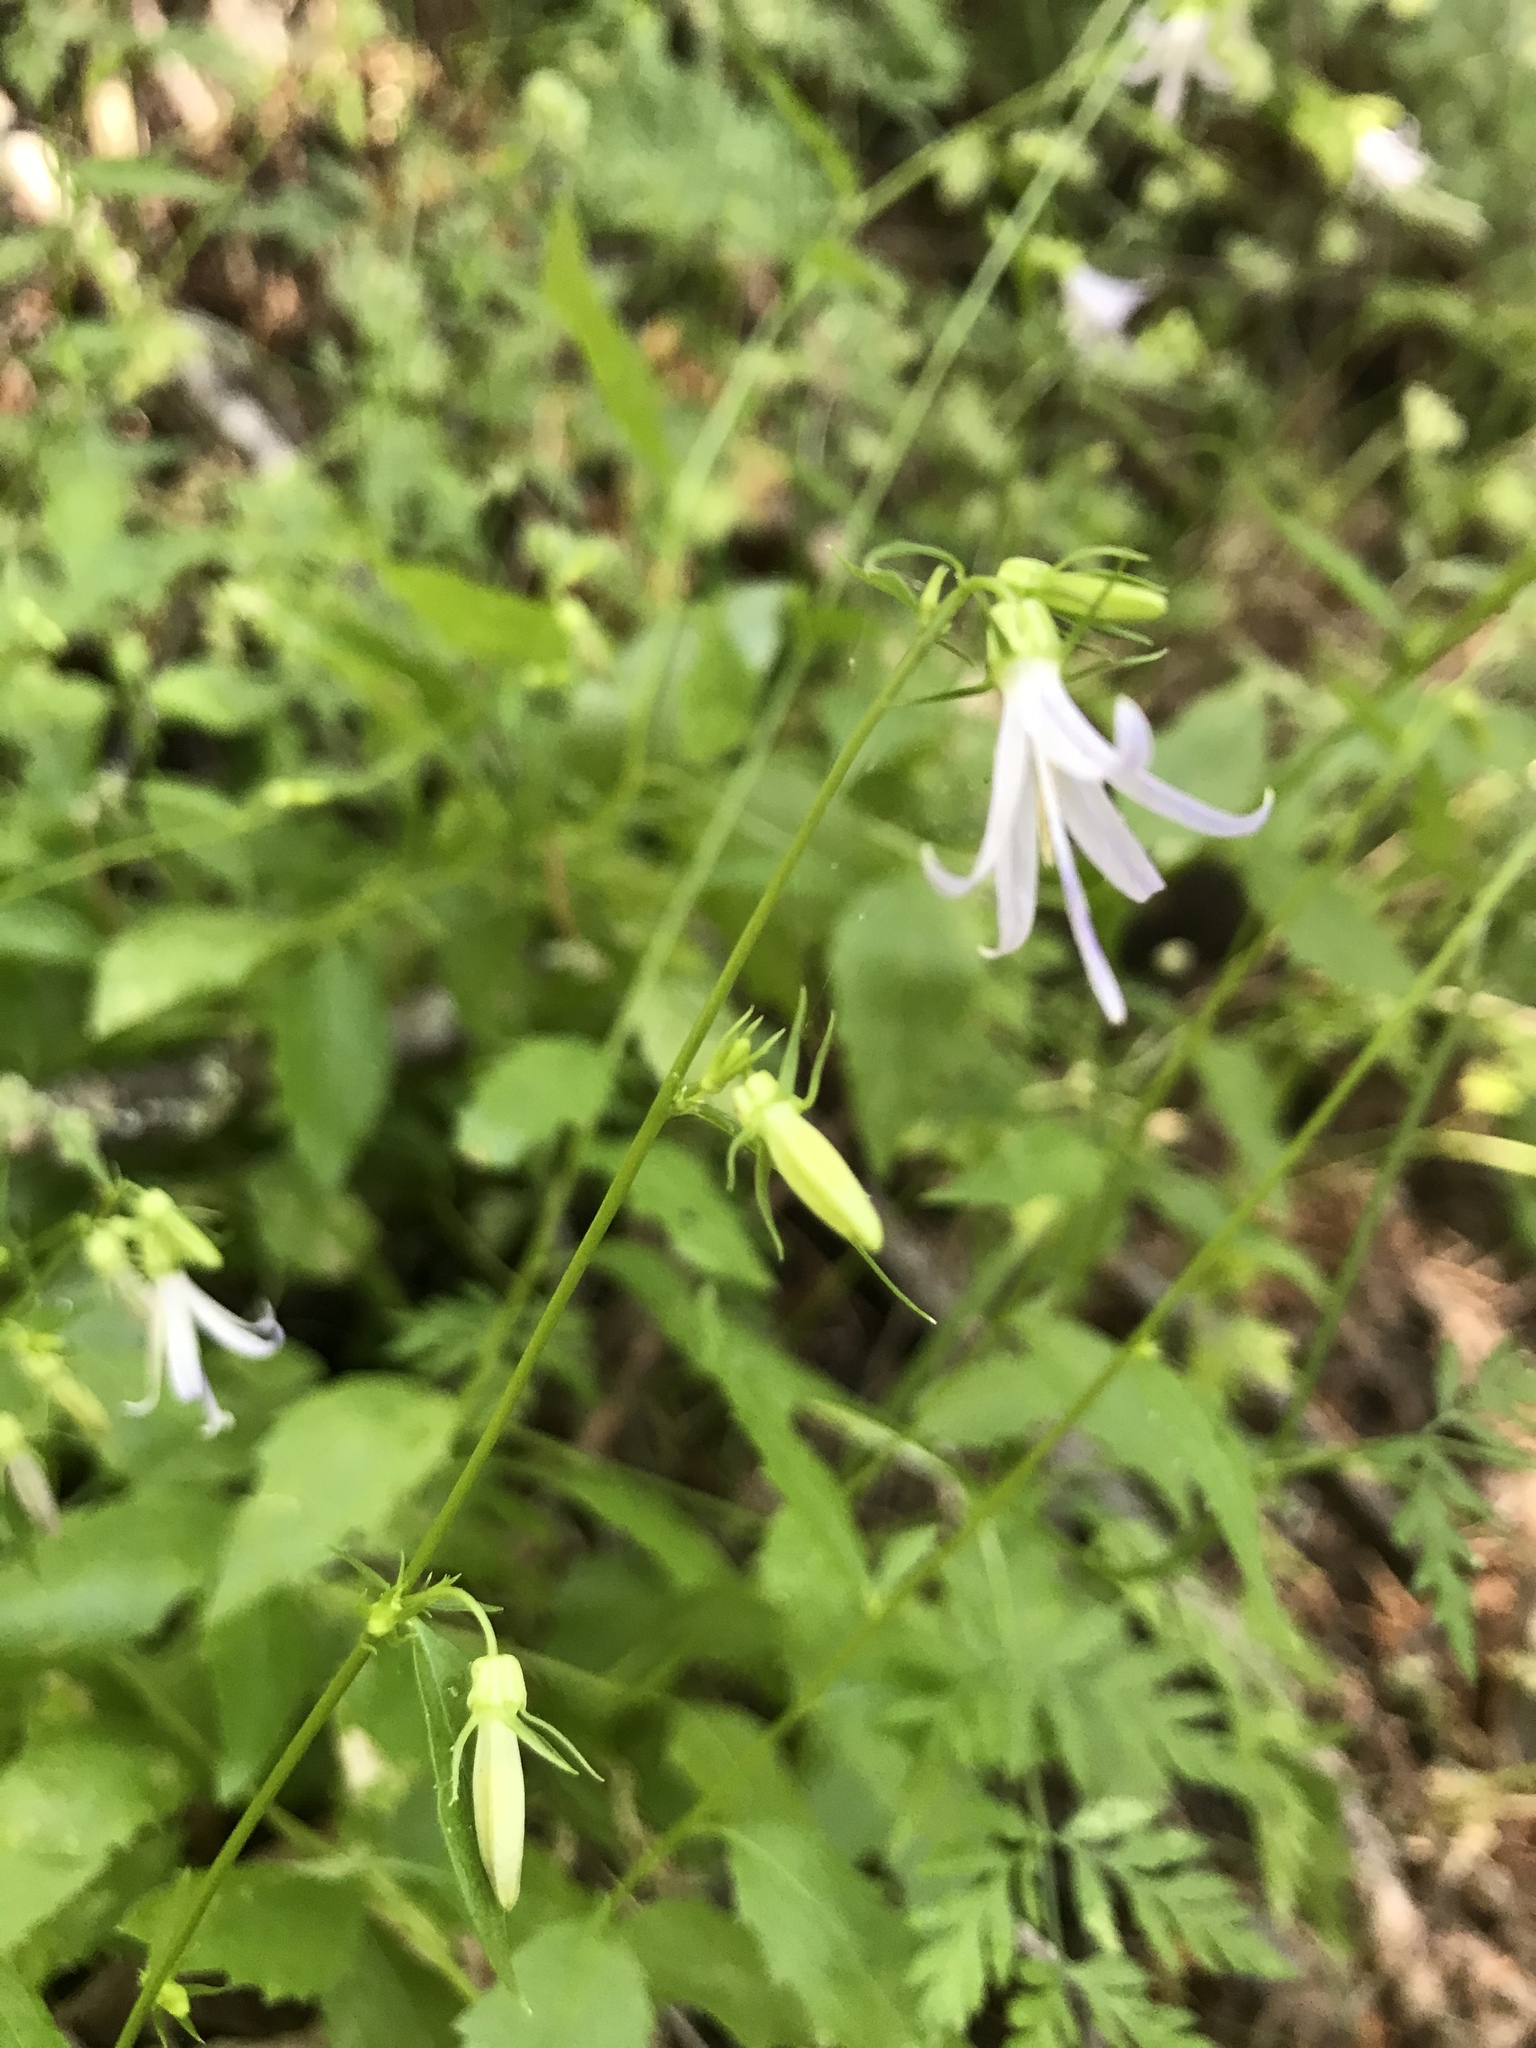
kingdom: Plantae
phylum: Tracheophyta
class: Magnoliopsida
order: Asterales
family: Campanulaceae
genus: Smithiastrum
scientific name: Smithiastrum prenanthoides
